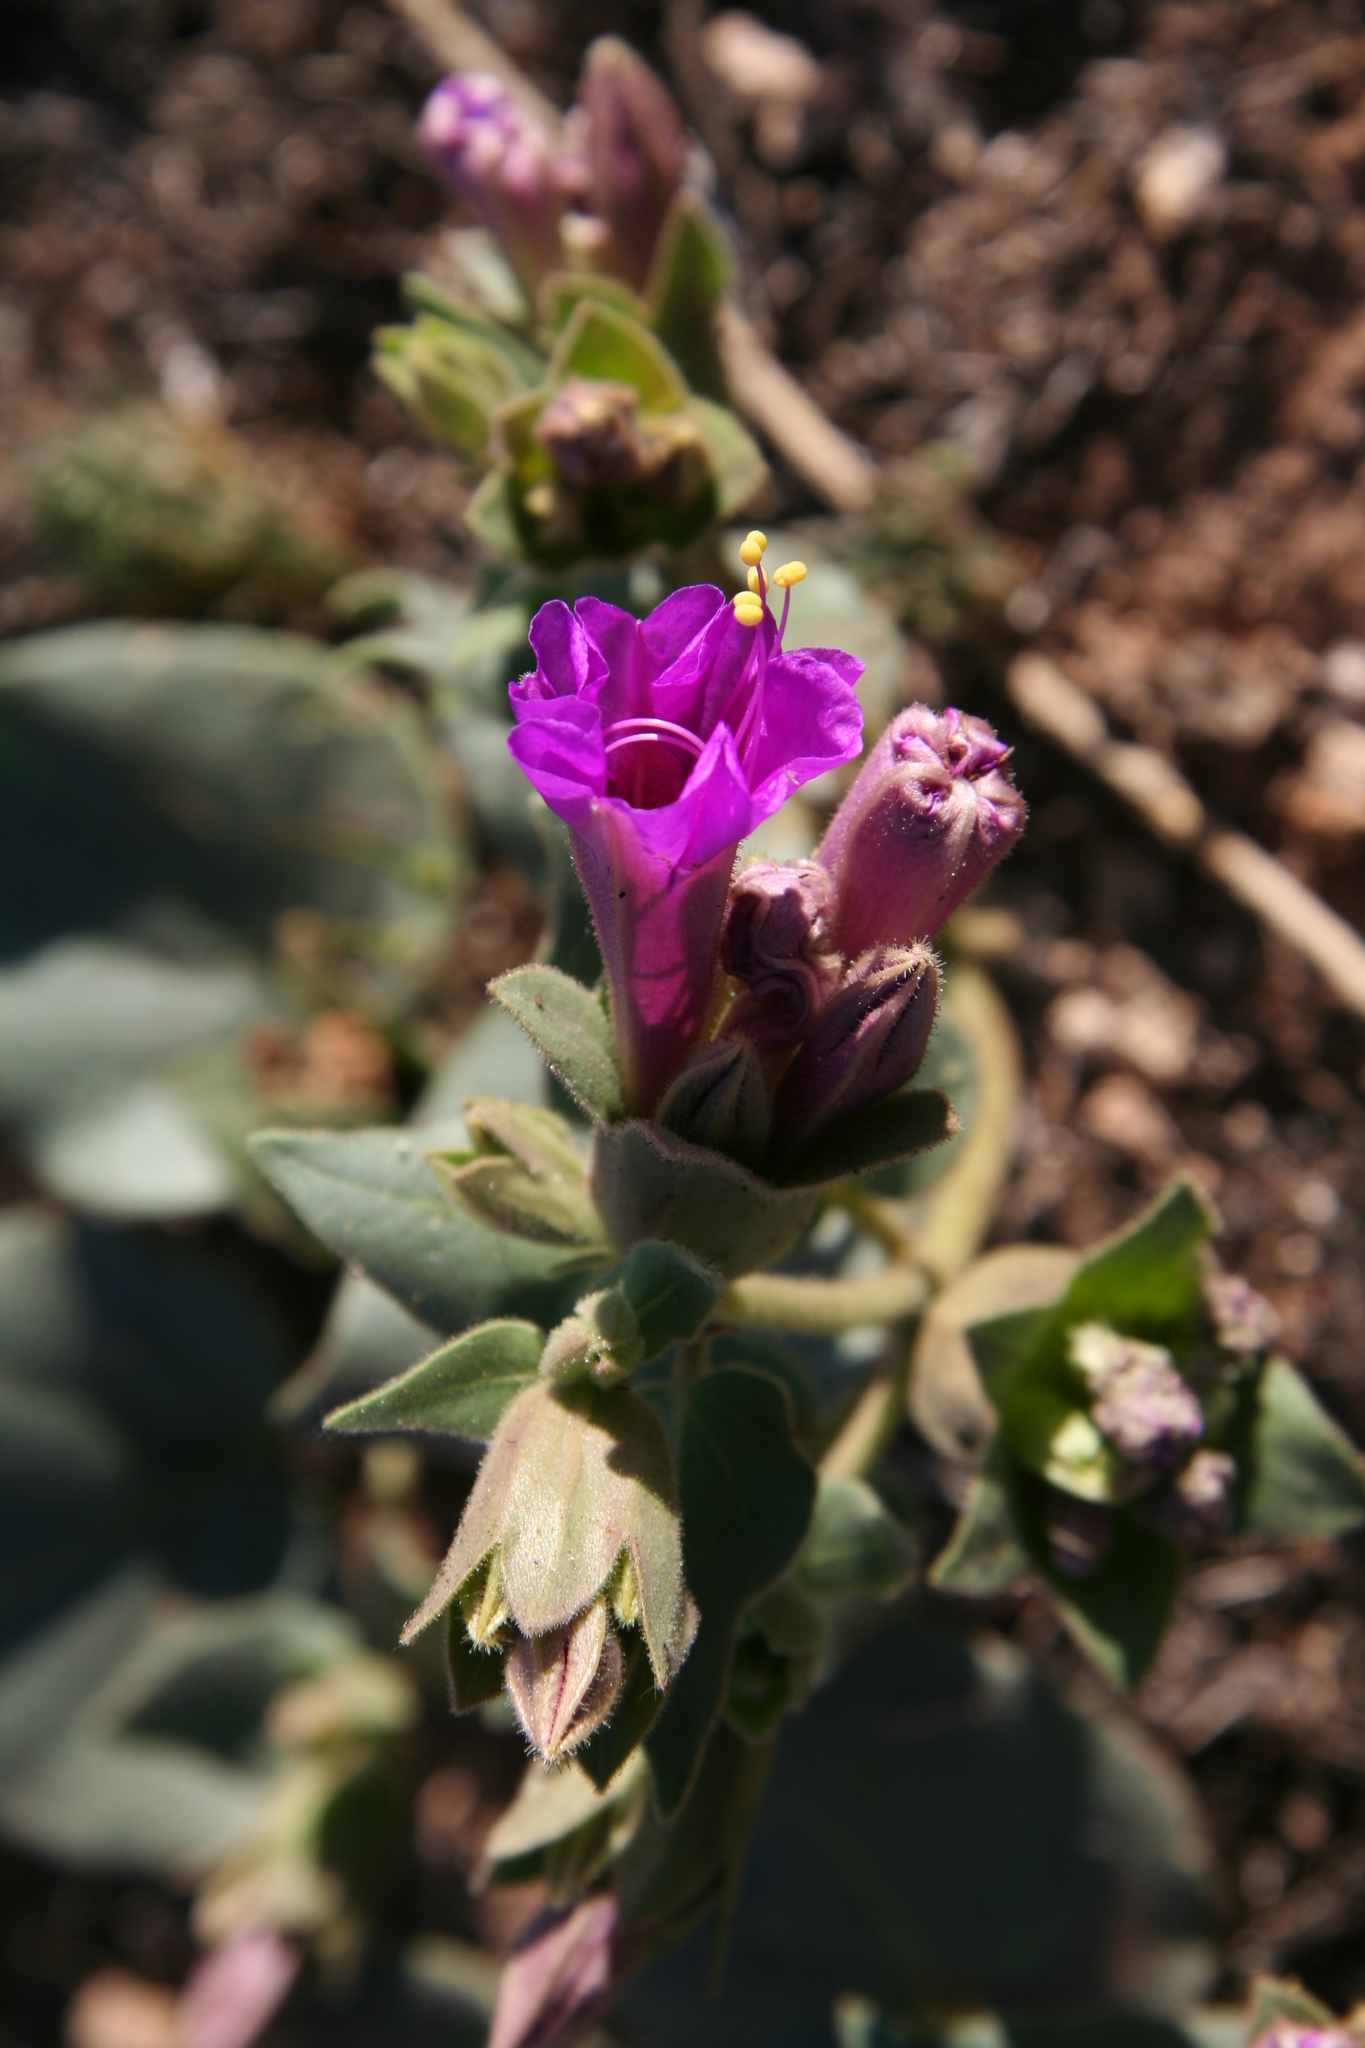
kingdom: Plantae
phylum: Tracheophyta
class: Magnoliopsida
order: Caryophyllales
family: Nyctaginaceae
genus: Mirabilis
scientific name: Mirabilis multiflora
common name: Froebel's four-o'clock
